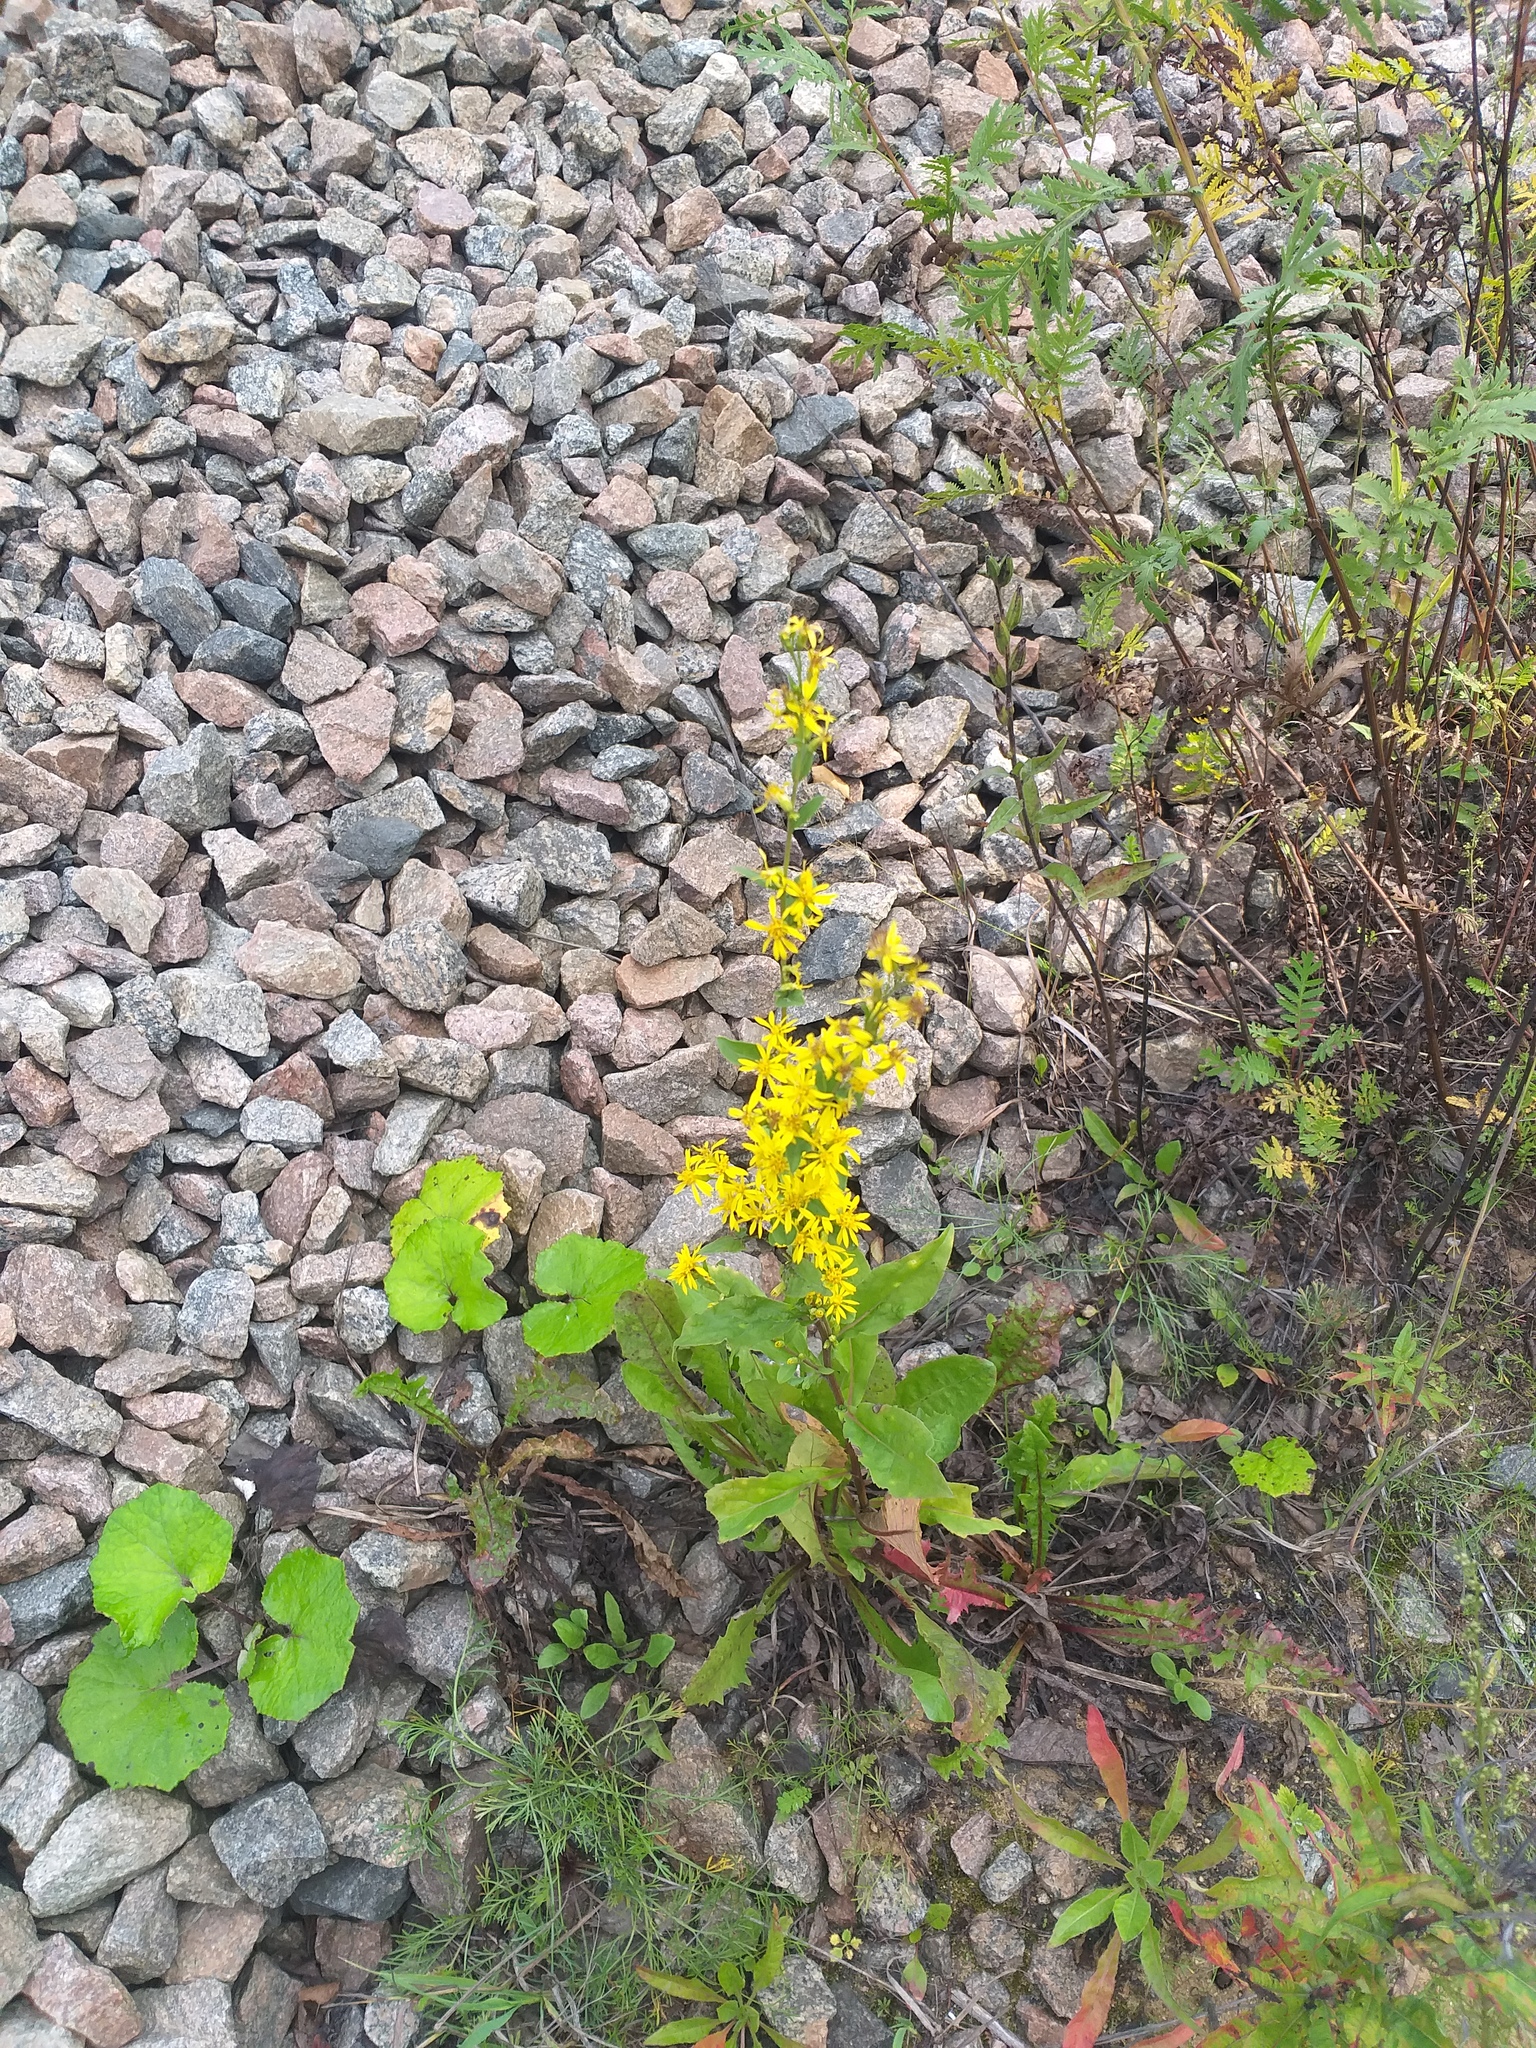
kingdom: Plantae
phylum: Tracheophyta
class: Magnoliopsida
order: Asterales
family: Asteraceae
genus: Solidago
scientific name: Solidago virgaurea
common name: Goldenrod
